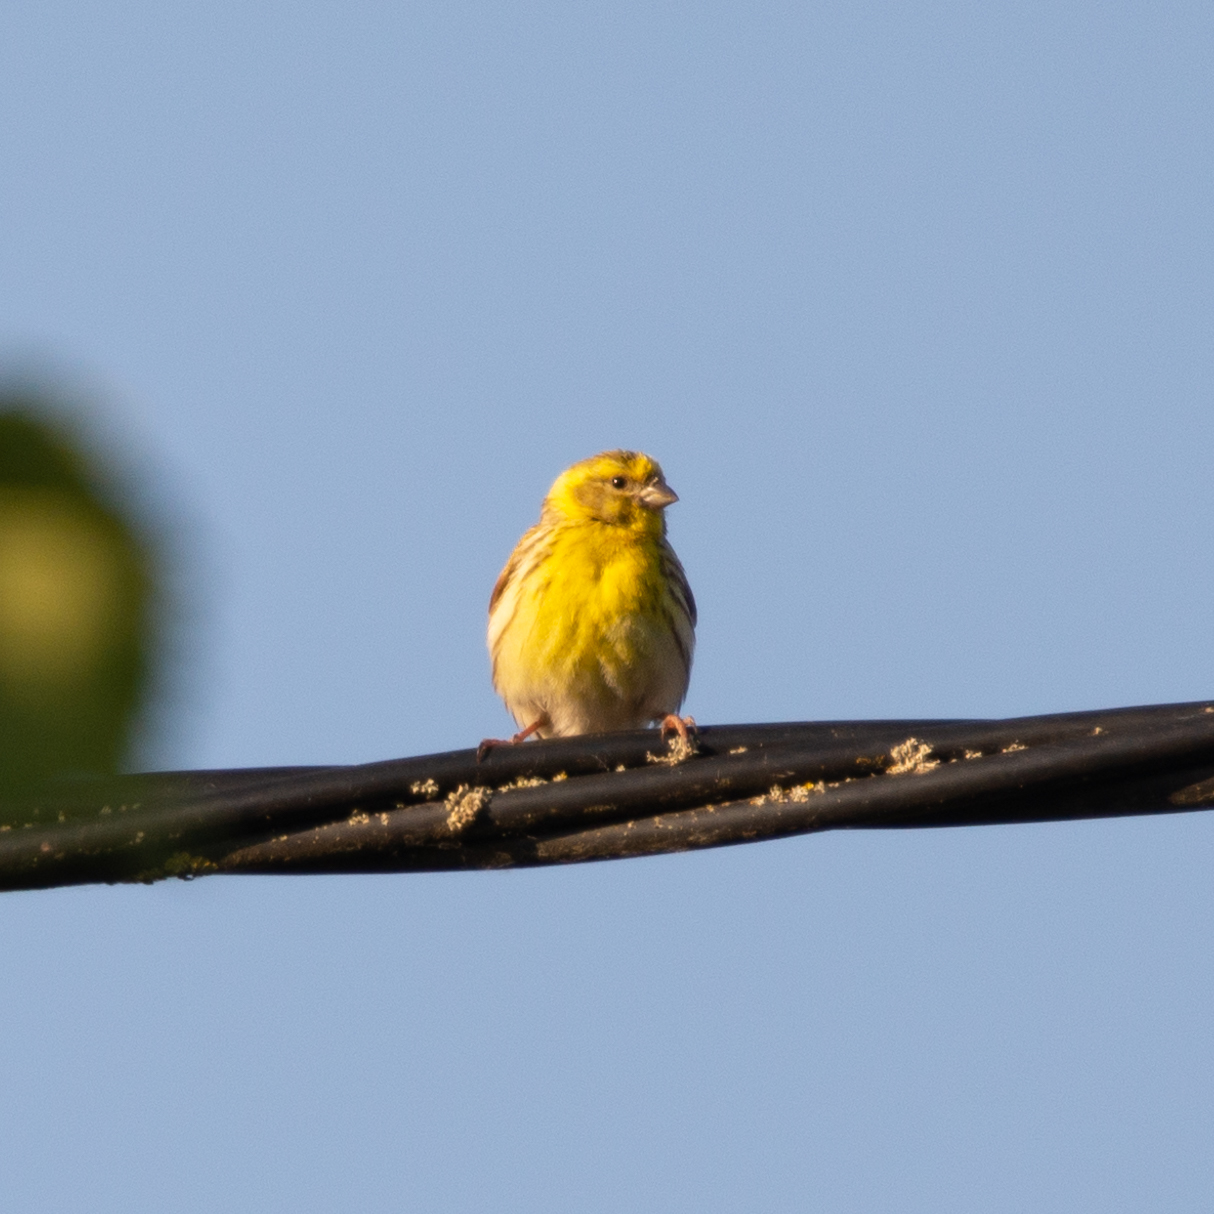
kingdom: Animalia
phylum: Chordata
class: Aves
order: Passeriformes
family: Fringillidae
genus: Serinus
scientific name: Serinus serinus
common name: European serin
